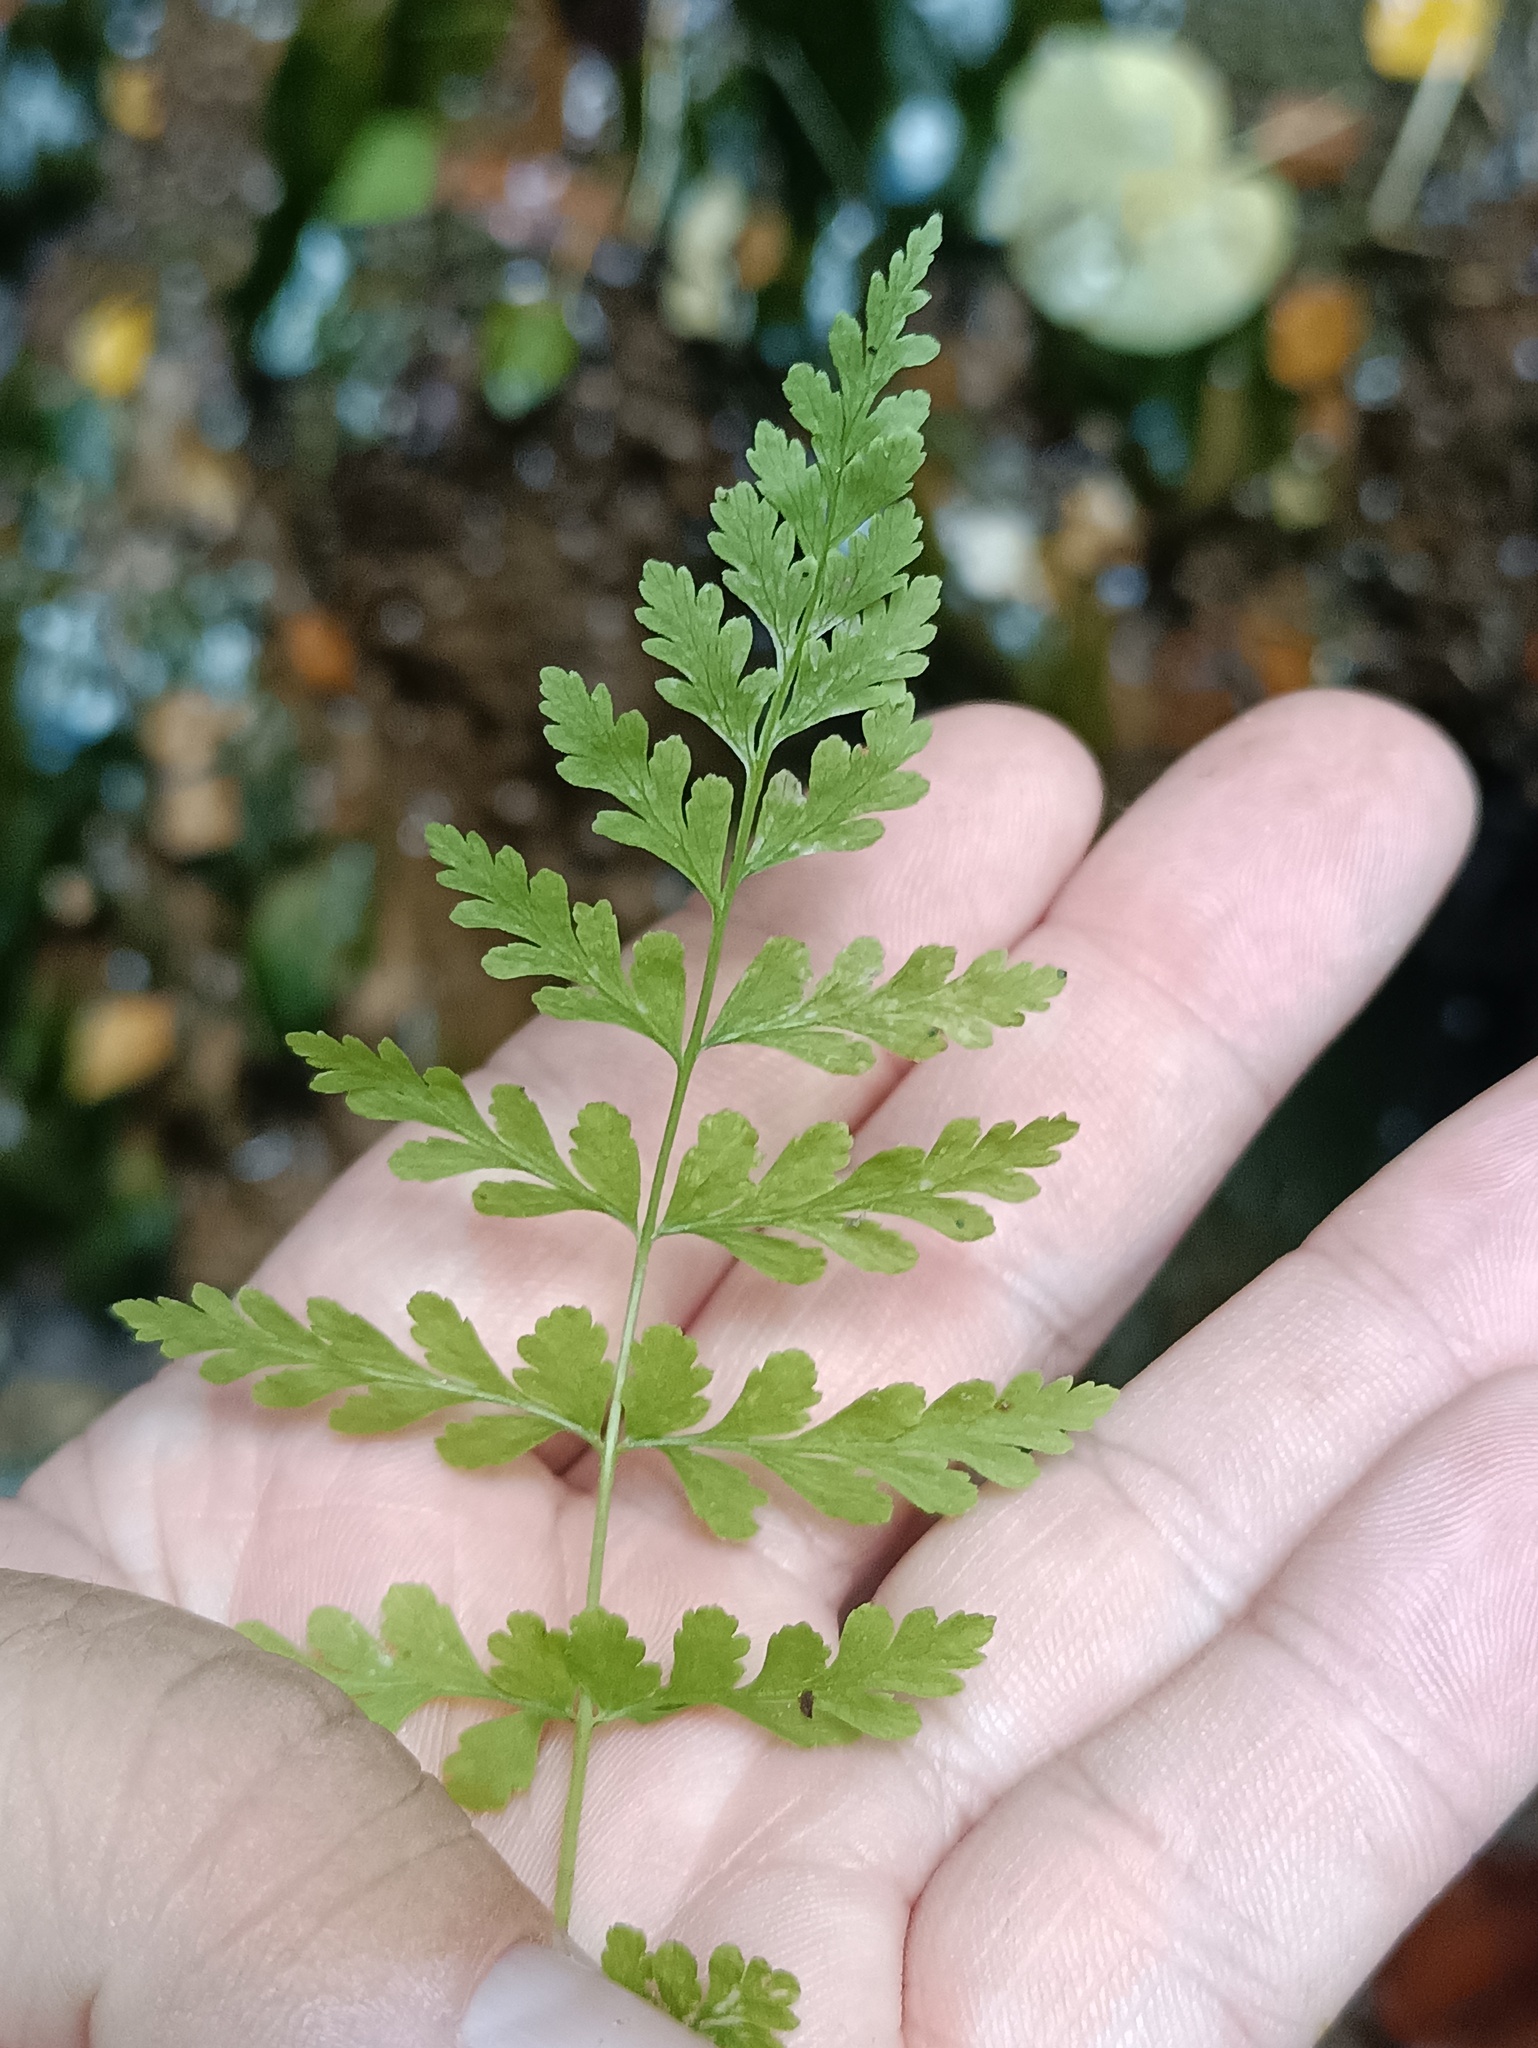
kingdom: Plantae
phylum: Tracheophyta
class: Polypodiopsida
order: Polypodiales
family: Cystopteridaceae
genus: Cystopteris
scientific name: Cystopteris fragilis
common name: Brittle bladder fern
